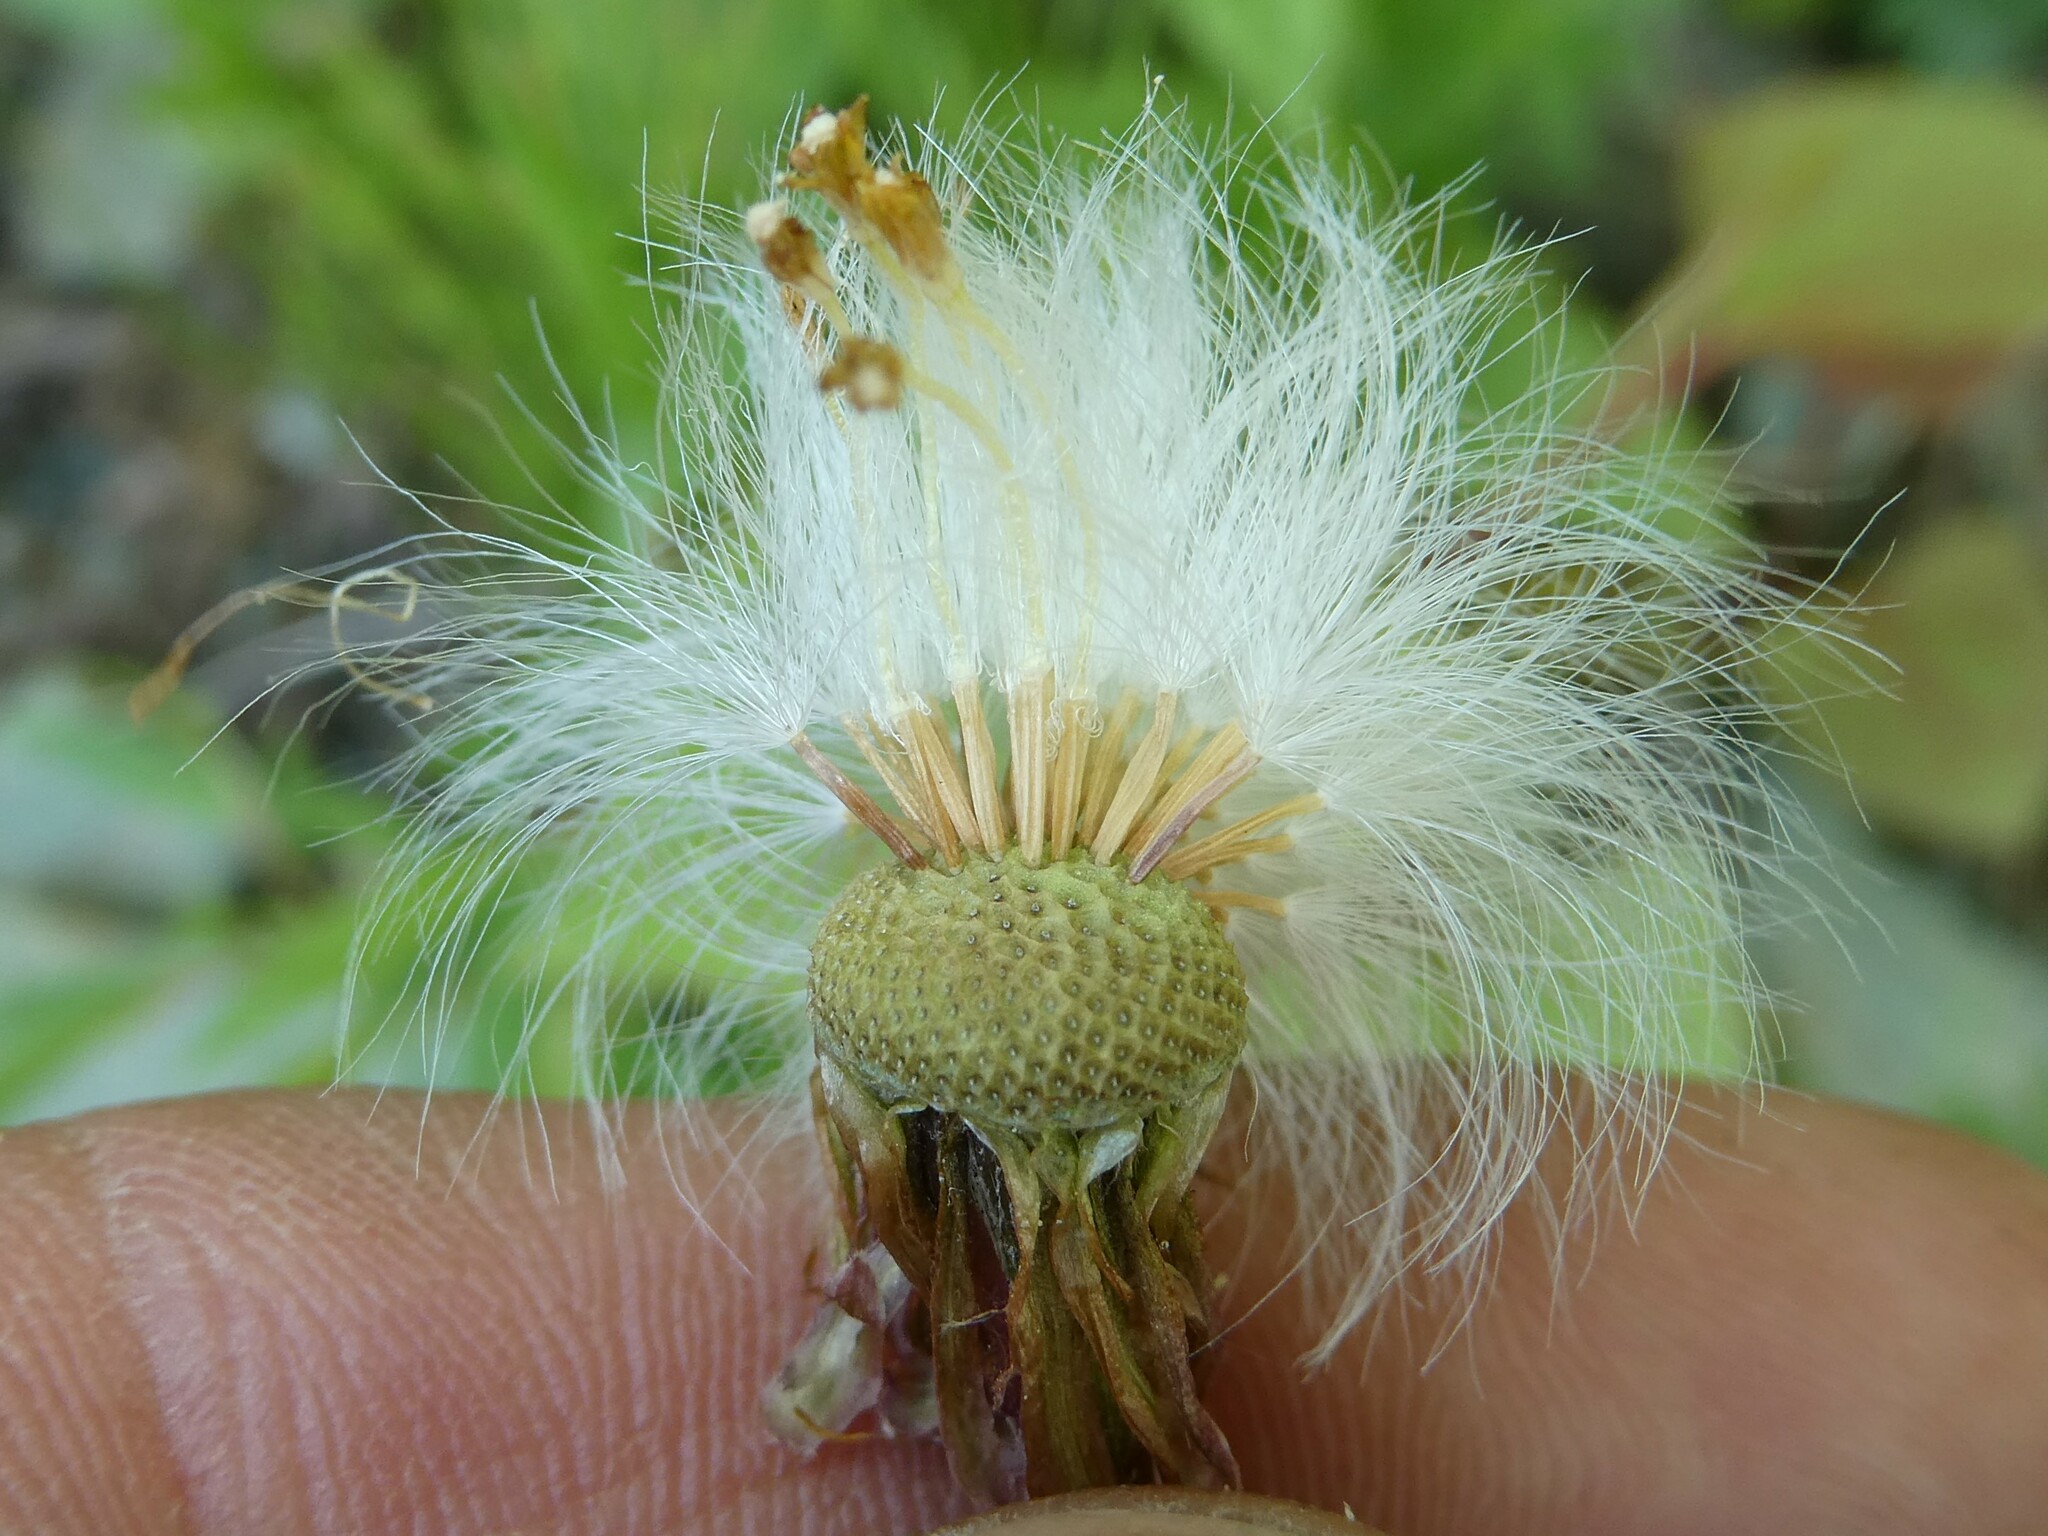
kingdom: Plantae
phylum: Tracheophyta
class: Magnoliopsida
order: Asterales
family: Asteraceae
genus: Tussilago
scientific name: Tussilago farfara
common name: Coltsfoot
